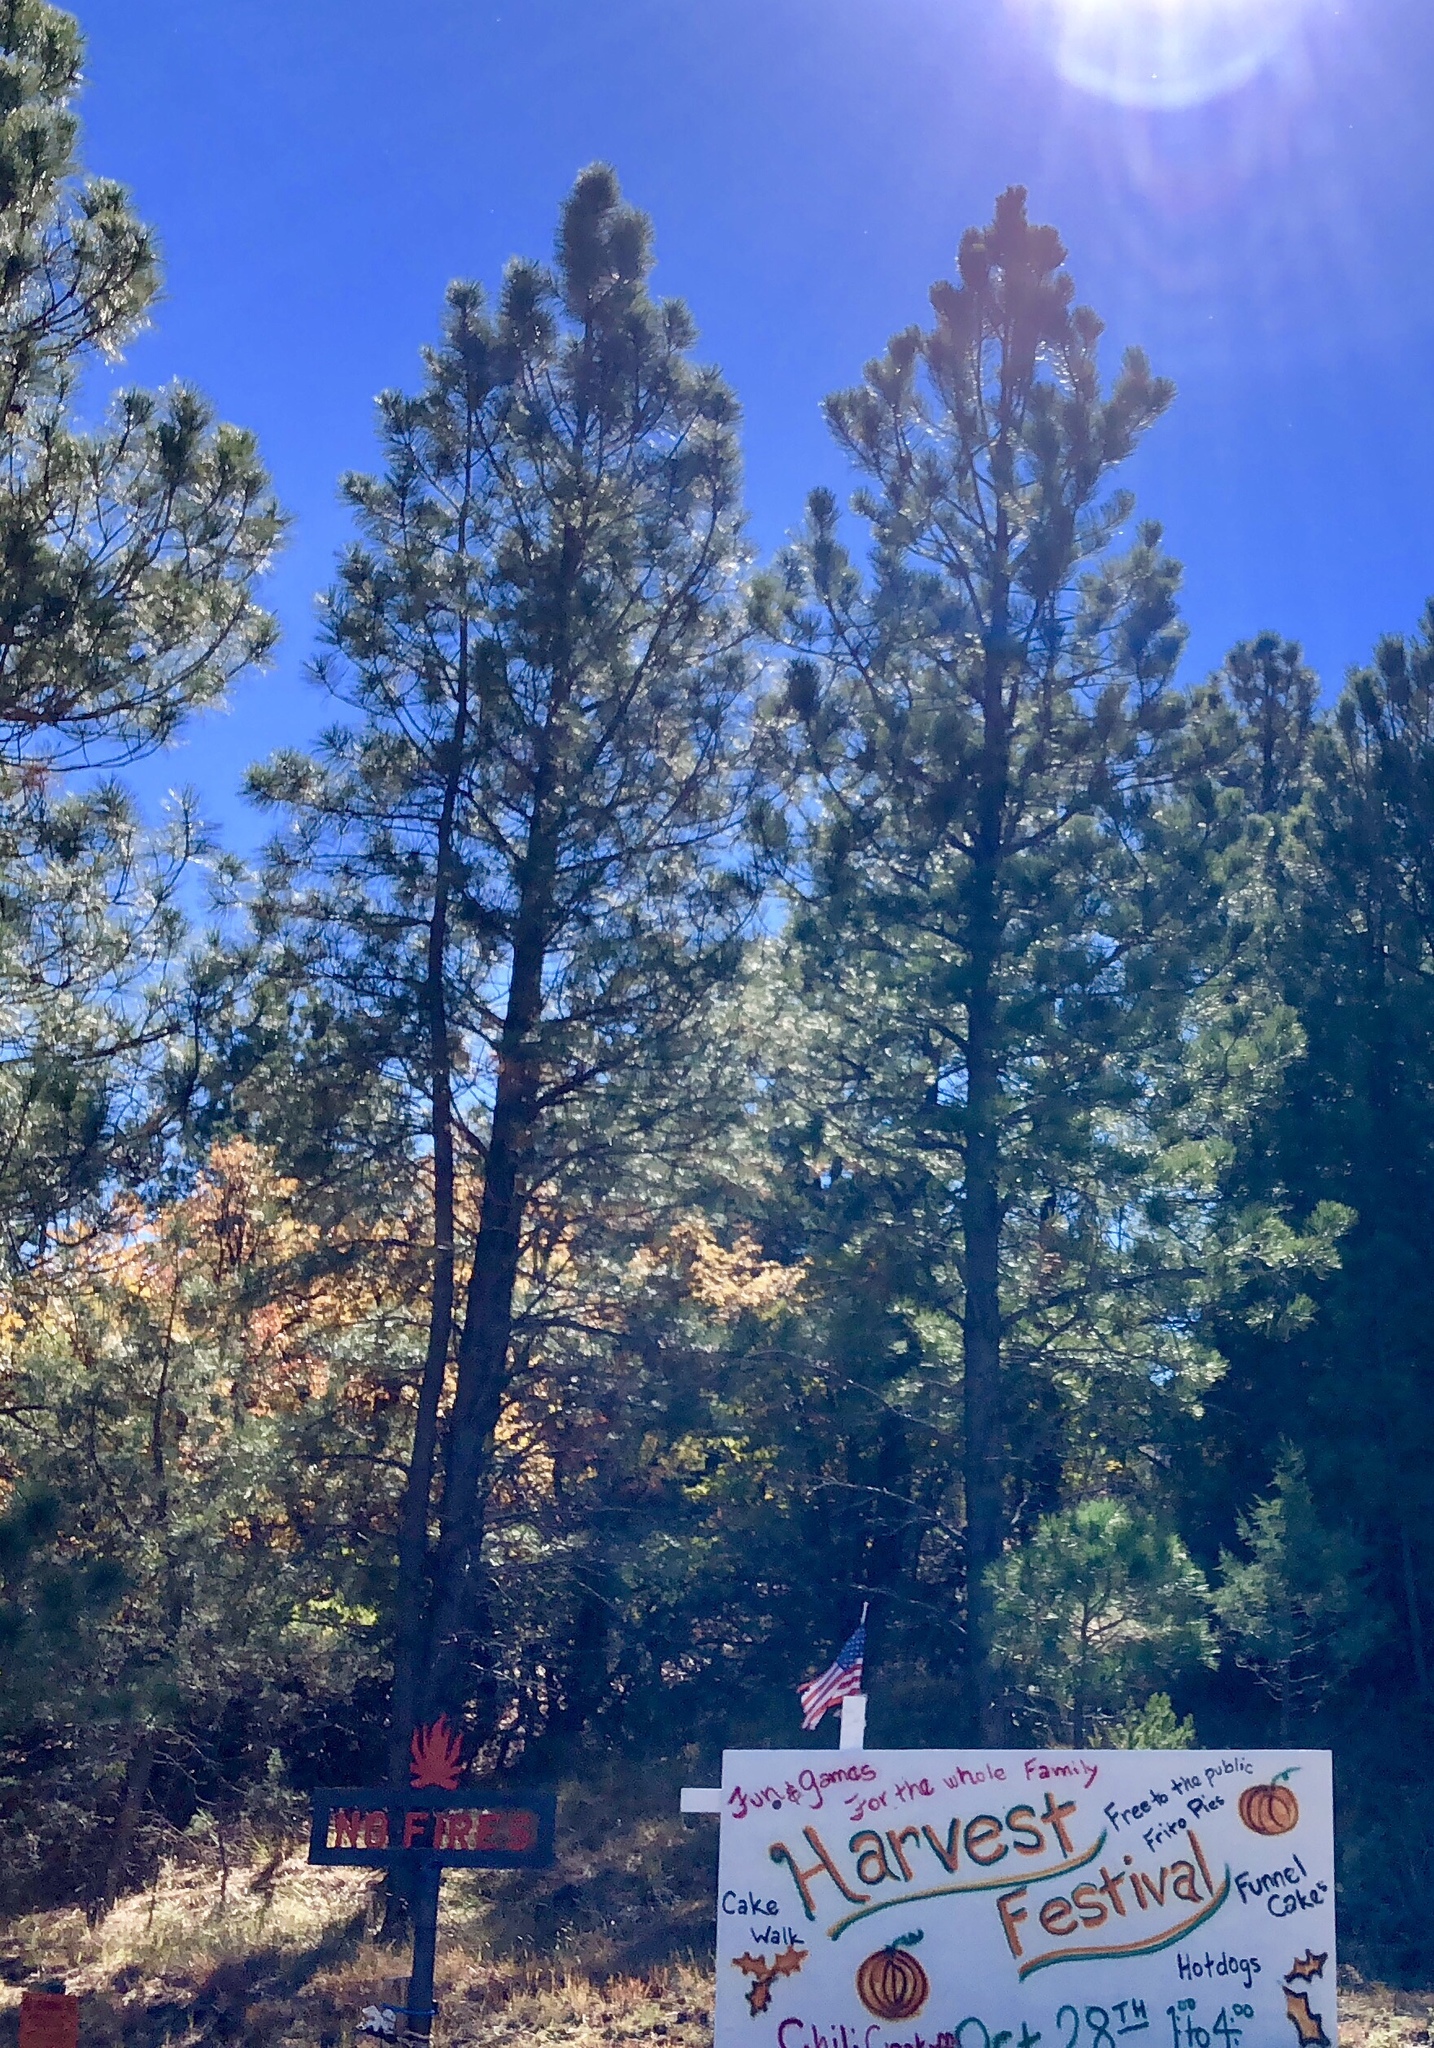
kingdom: Plantae
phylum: Tracheophyta
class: Pinopsida
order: Pinales
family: Pinaceae
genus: Pinus
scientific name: Pinus ponderosa
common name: Western yellow-pine
